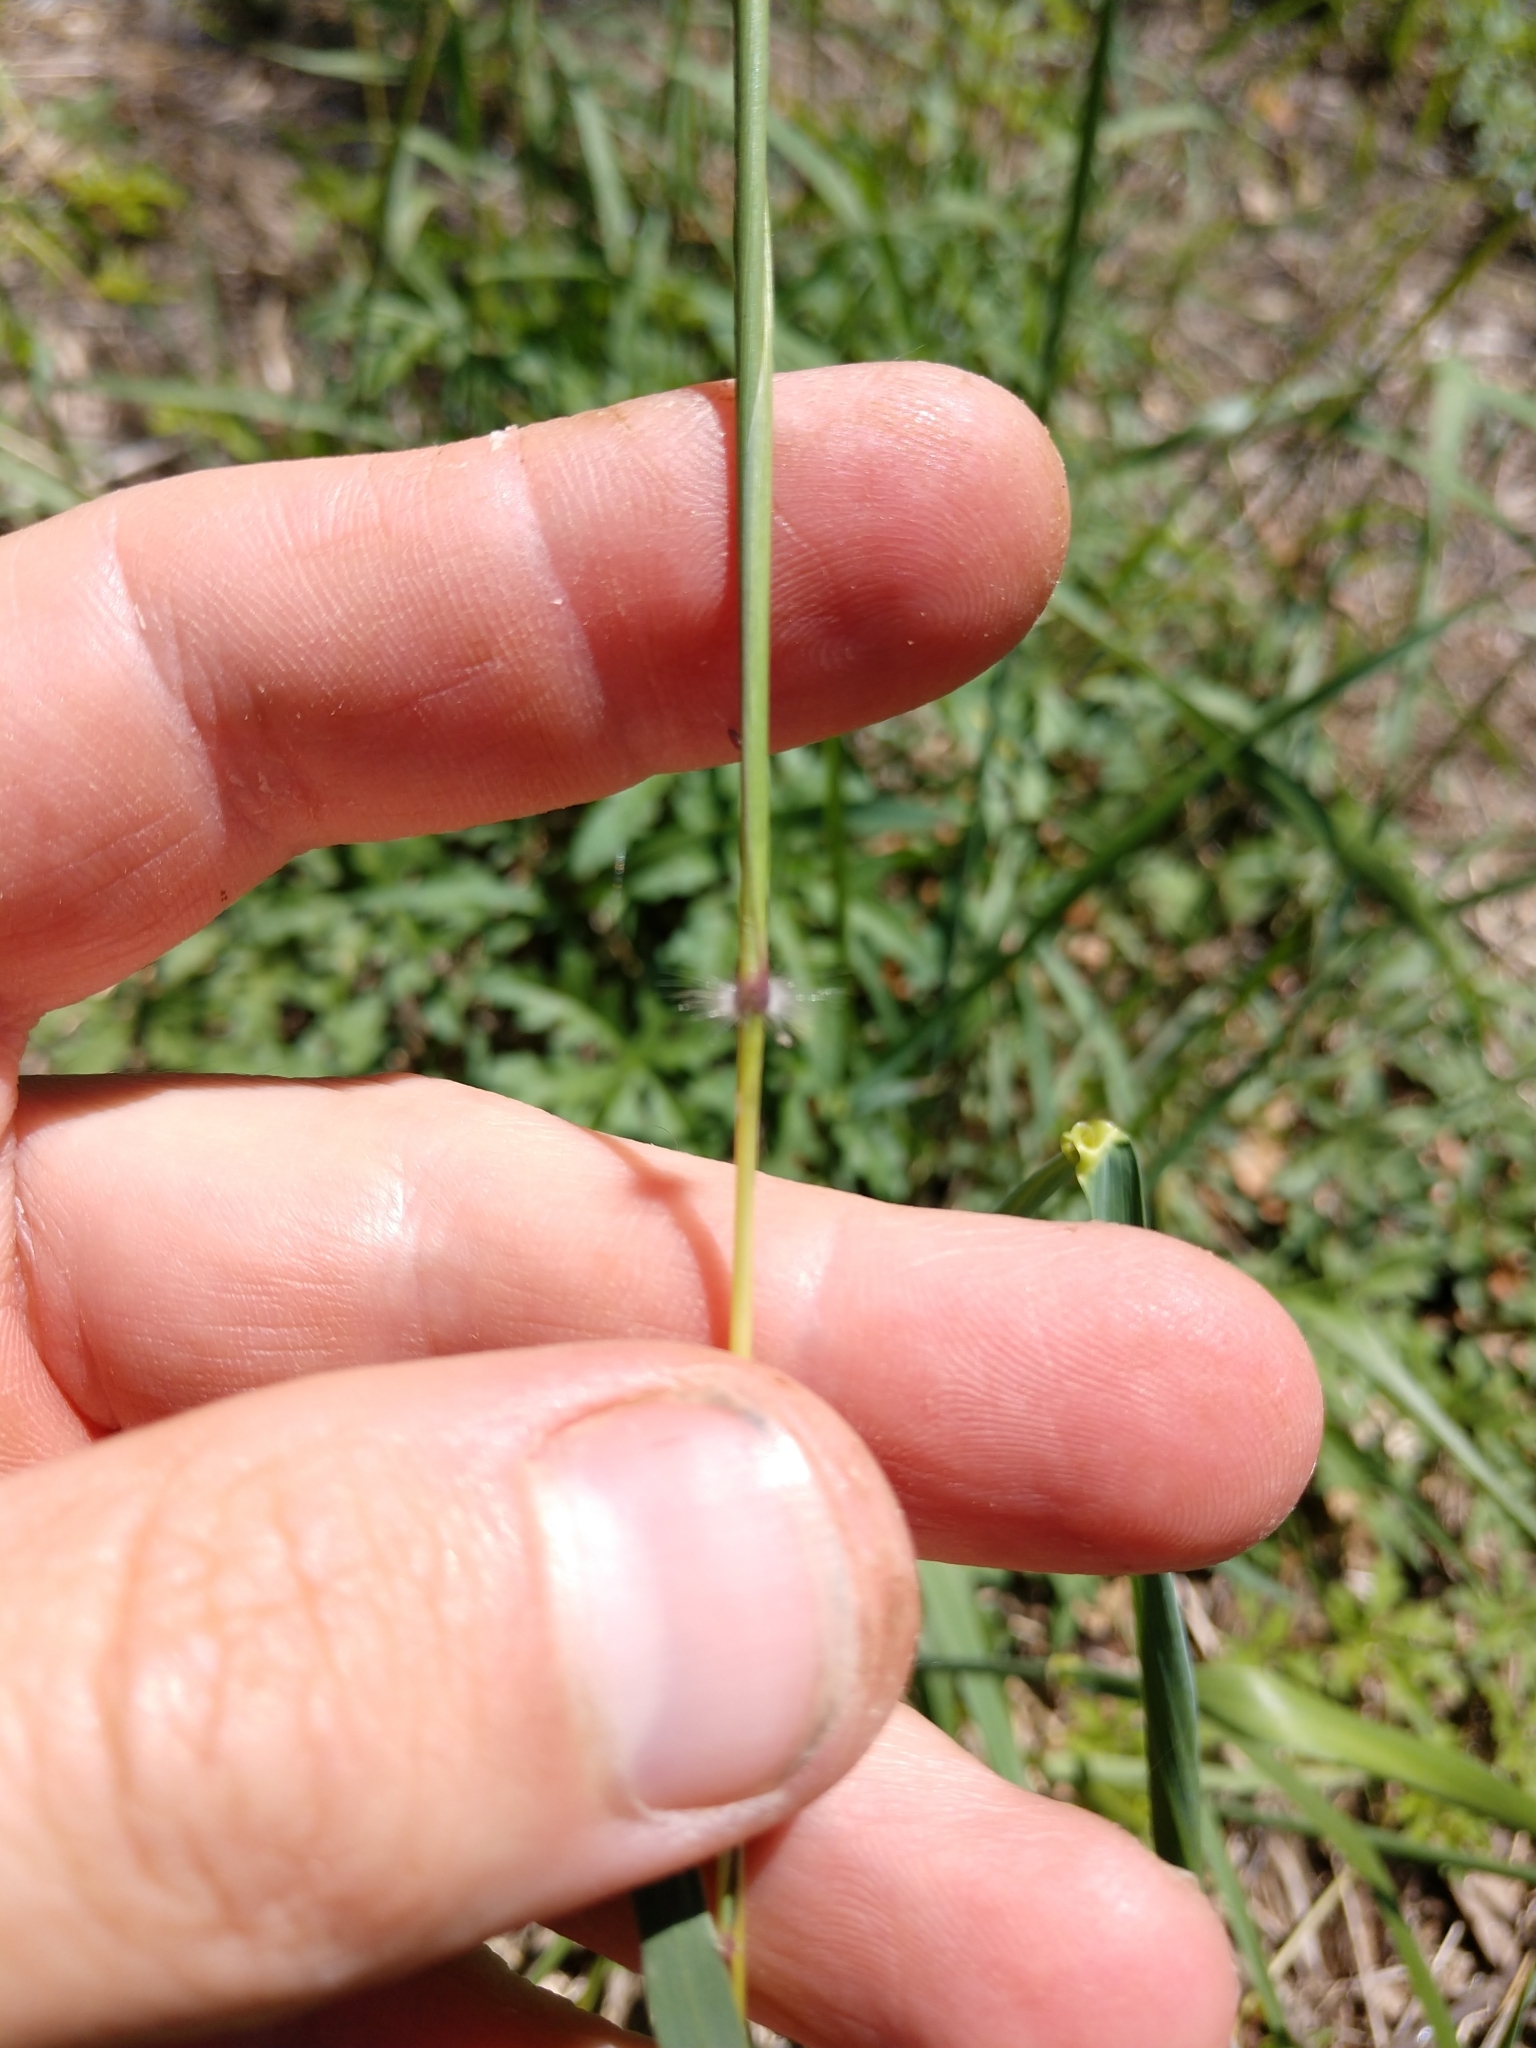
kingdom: Plantae
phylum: Tracheophyta
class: Liliopsida
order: Poales
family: Poaceae
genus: Dichanthium
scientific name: Dichanthium annulatum
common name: Kleberg's bluestem
